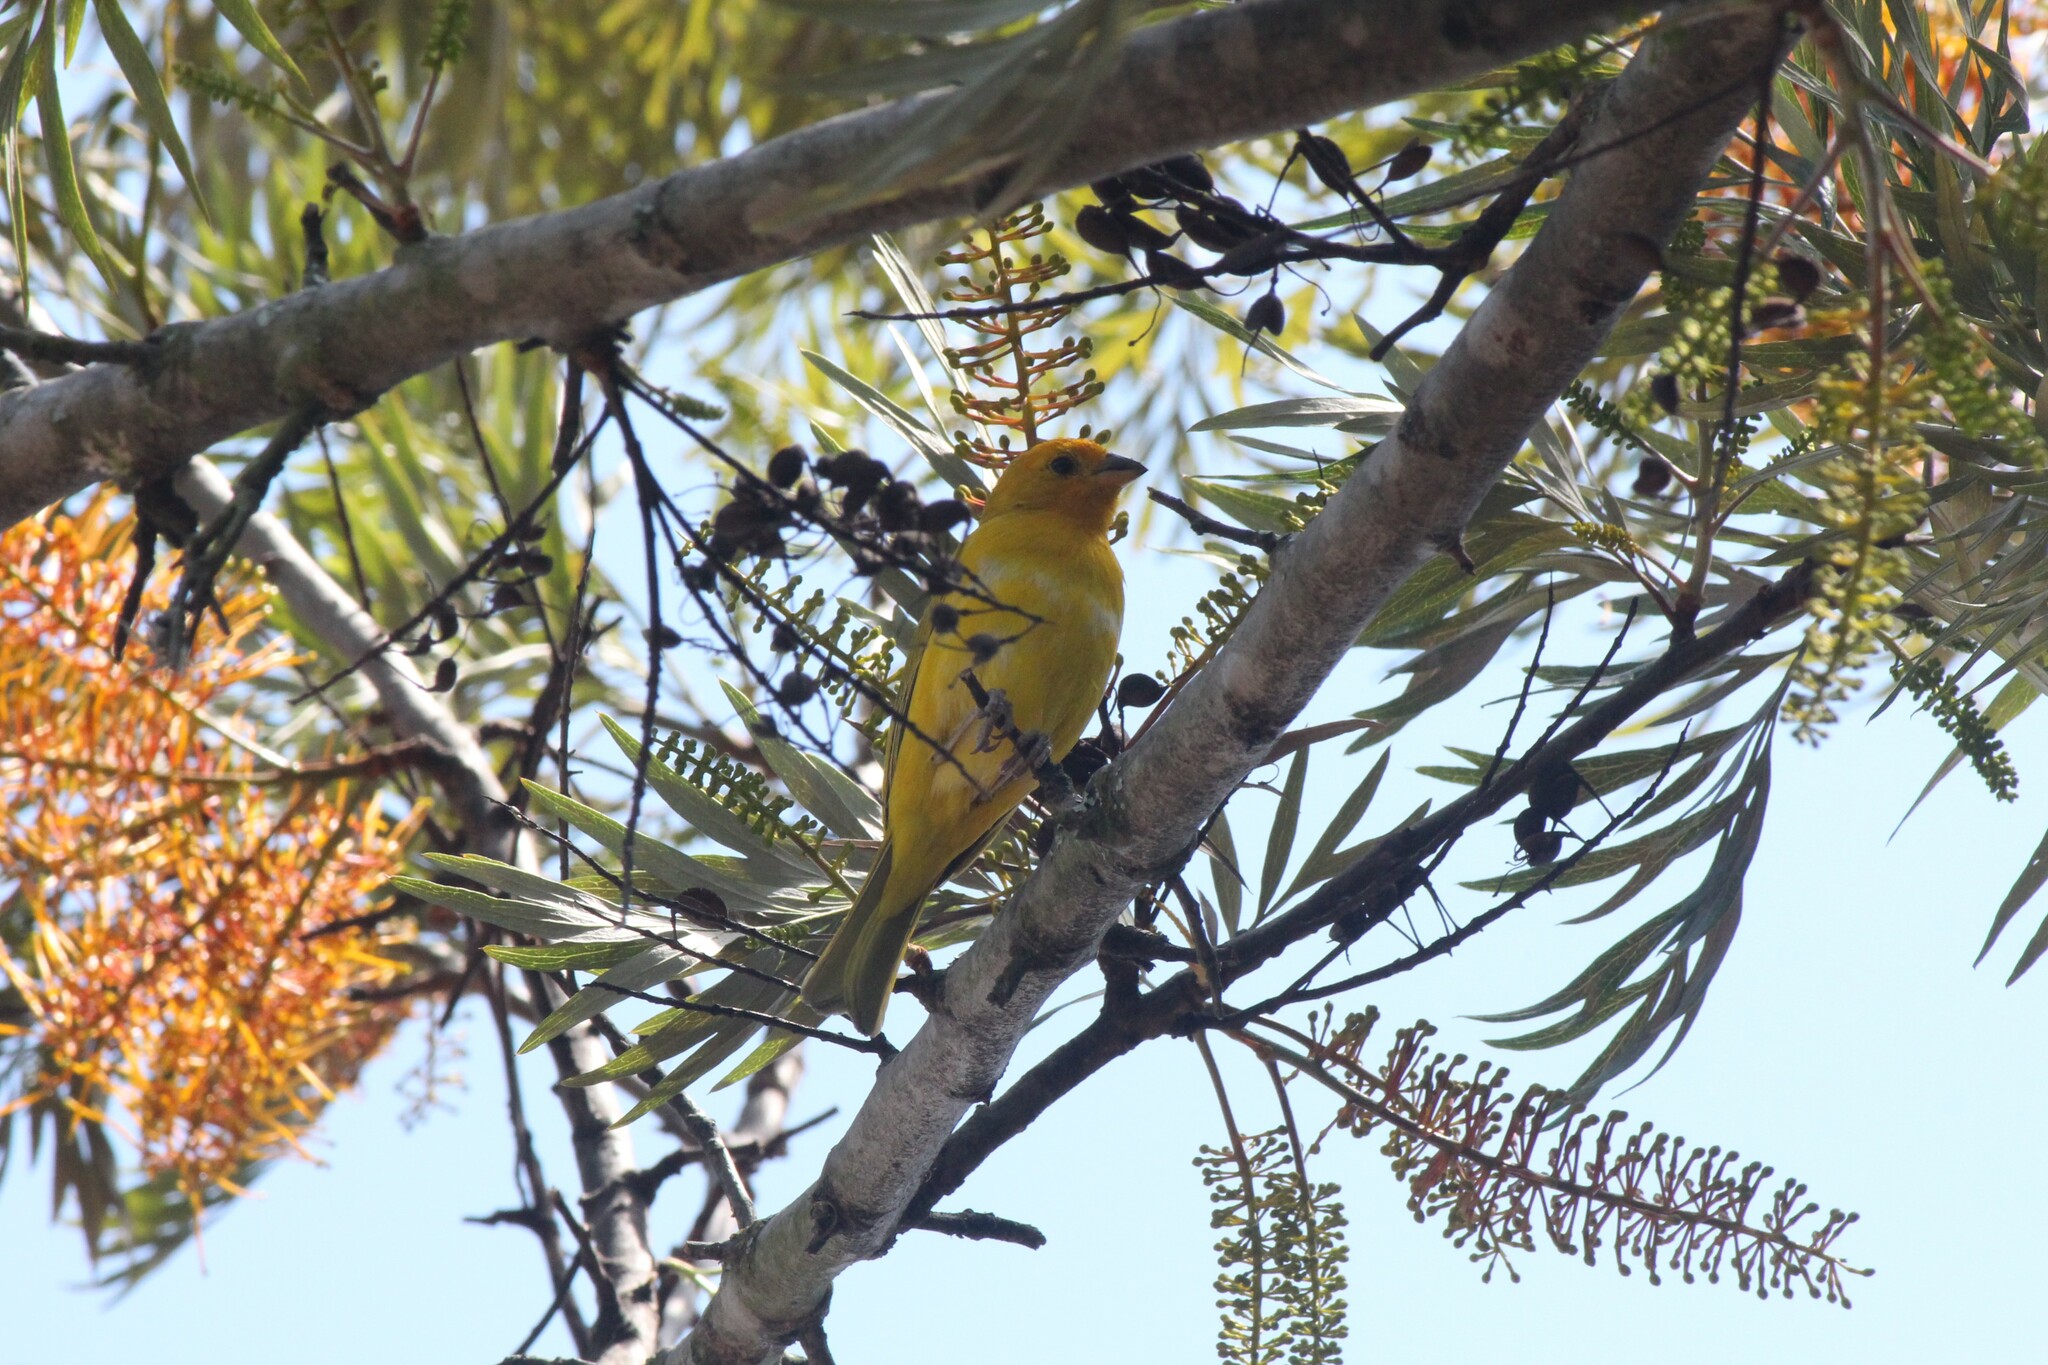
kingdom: Animalia
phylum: Chordata
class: Aves
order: Passeriformes
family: Thraupidae
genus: Sicalis
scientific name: Sicalis flaveola
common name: Saffron finch
